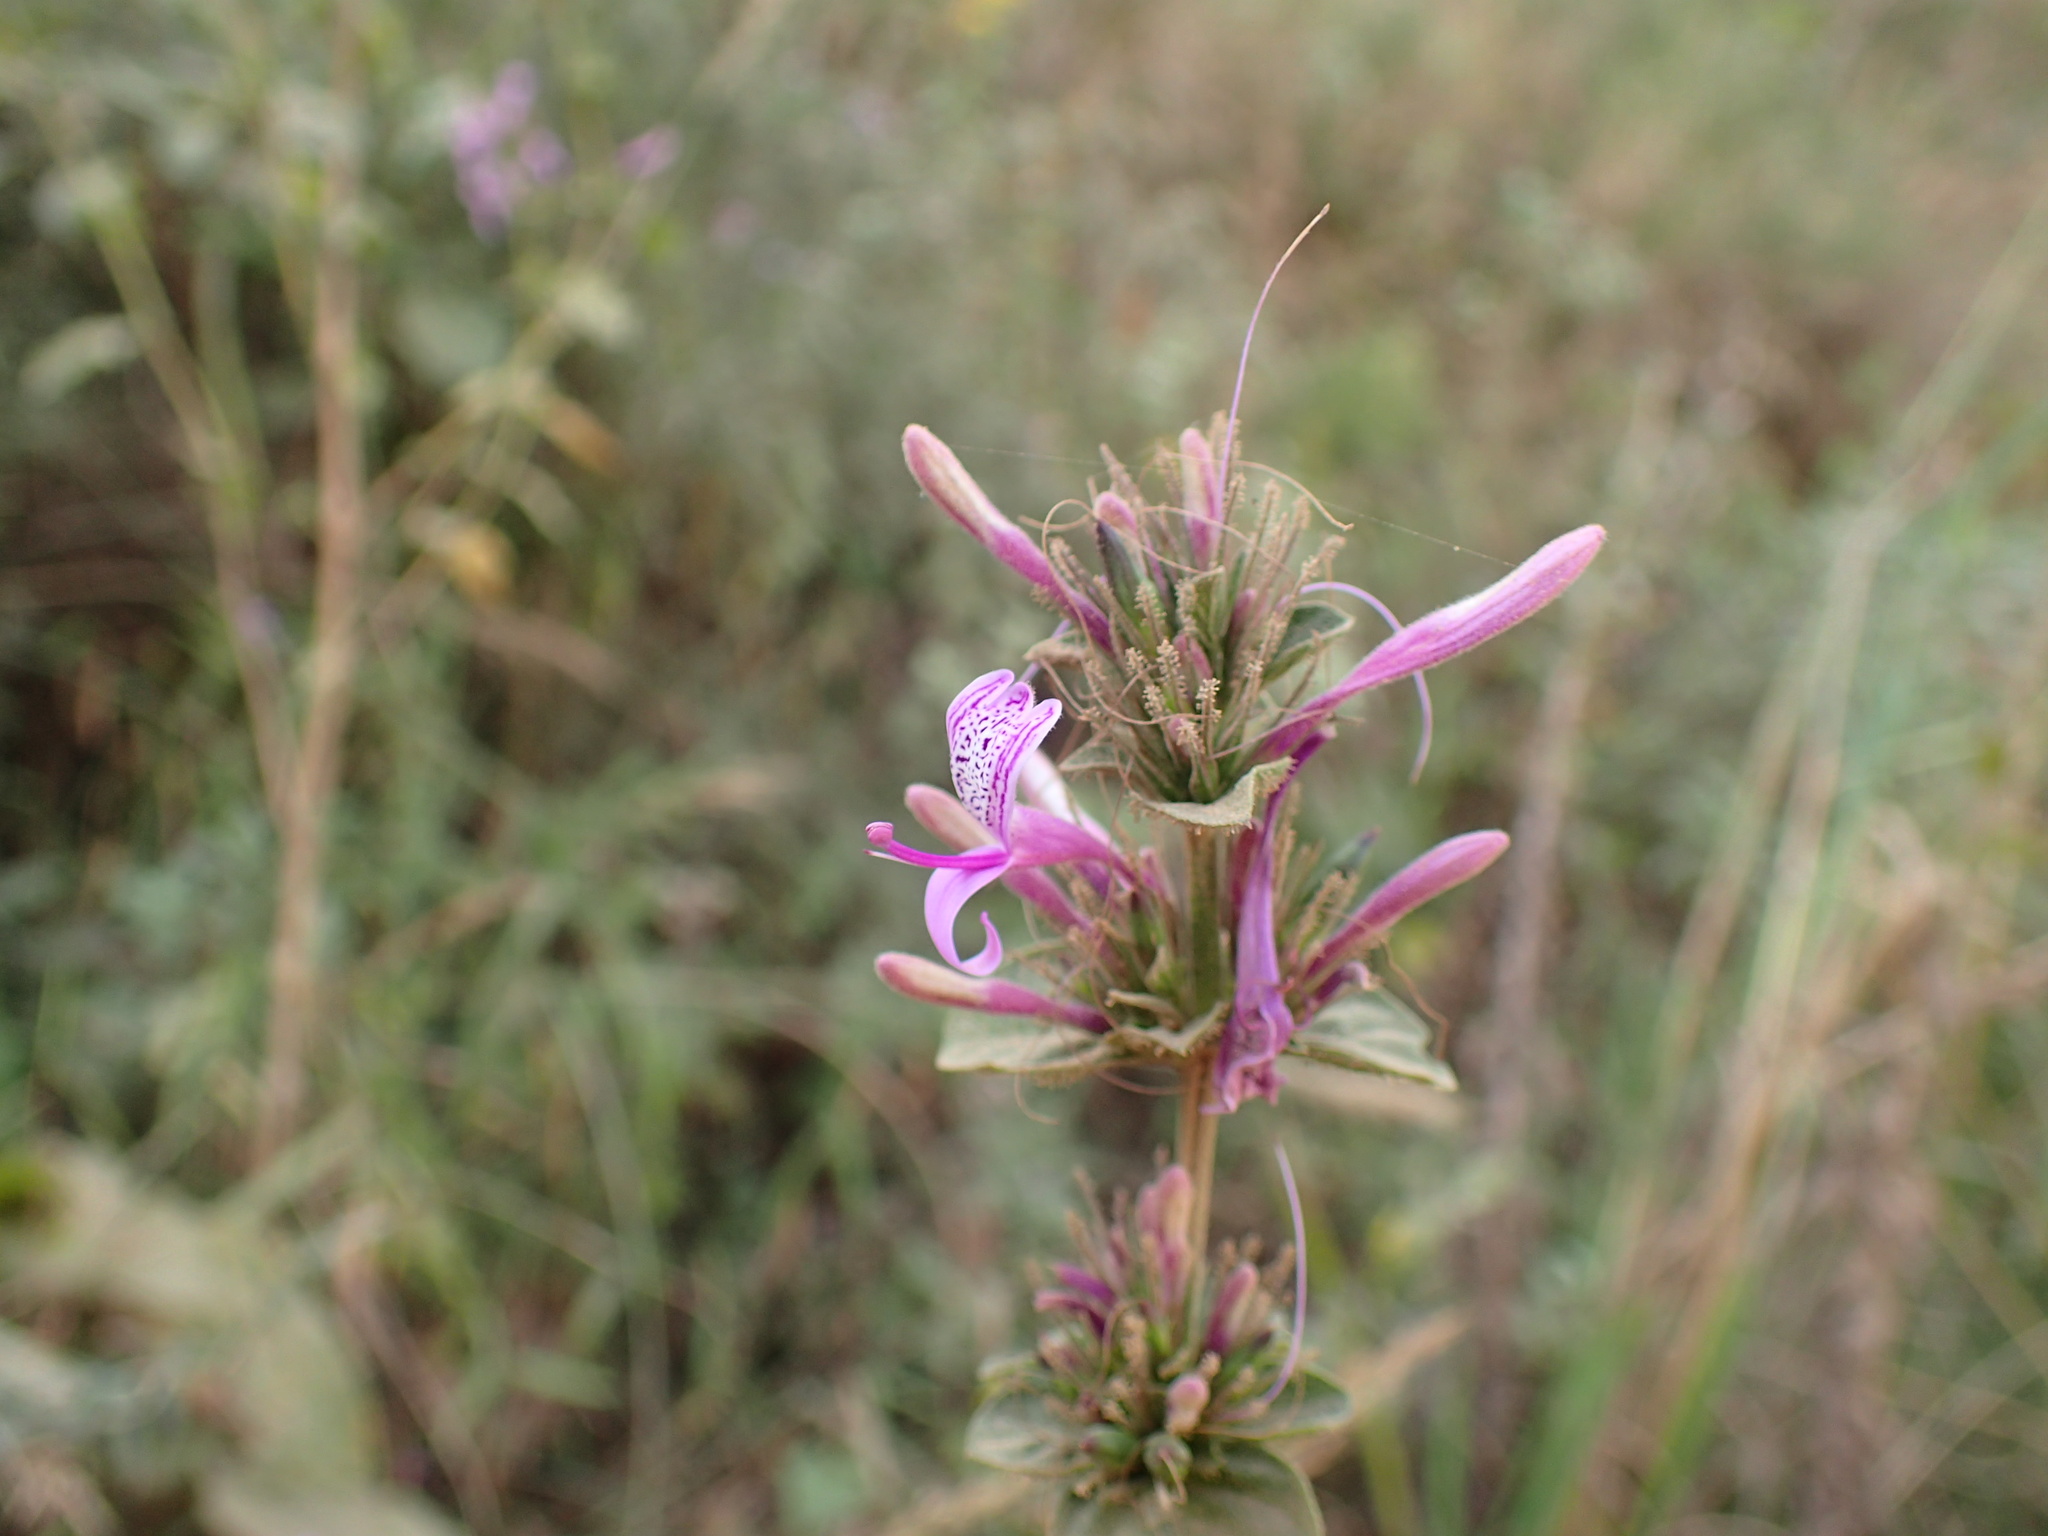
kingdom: Plantae
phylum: Tracheophyta
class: Magnoliopsida
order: Lamiales
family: Acanthaceae
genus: Hypoestes
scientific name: Hypoestes aristata
